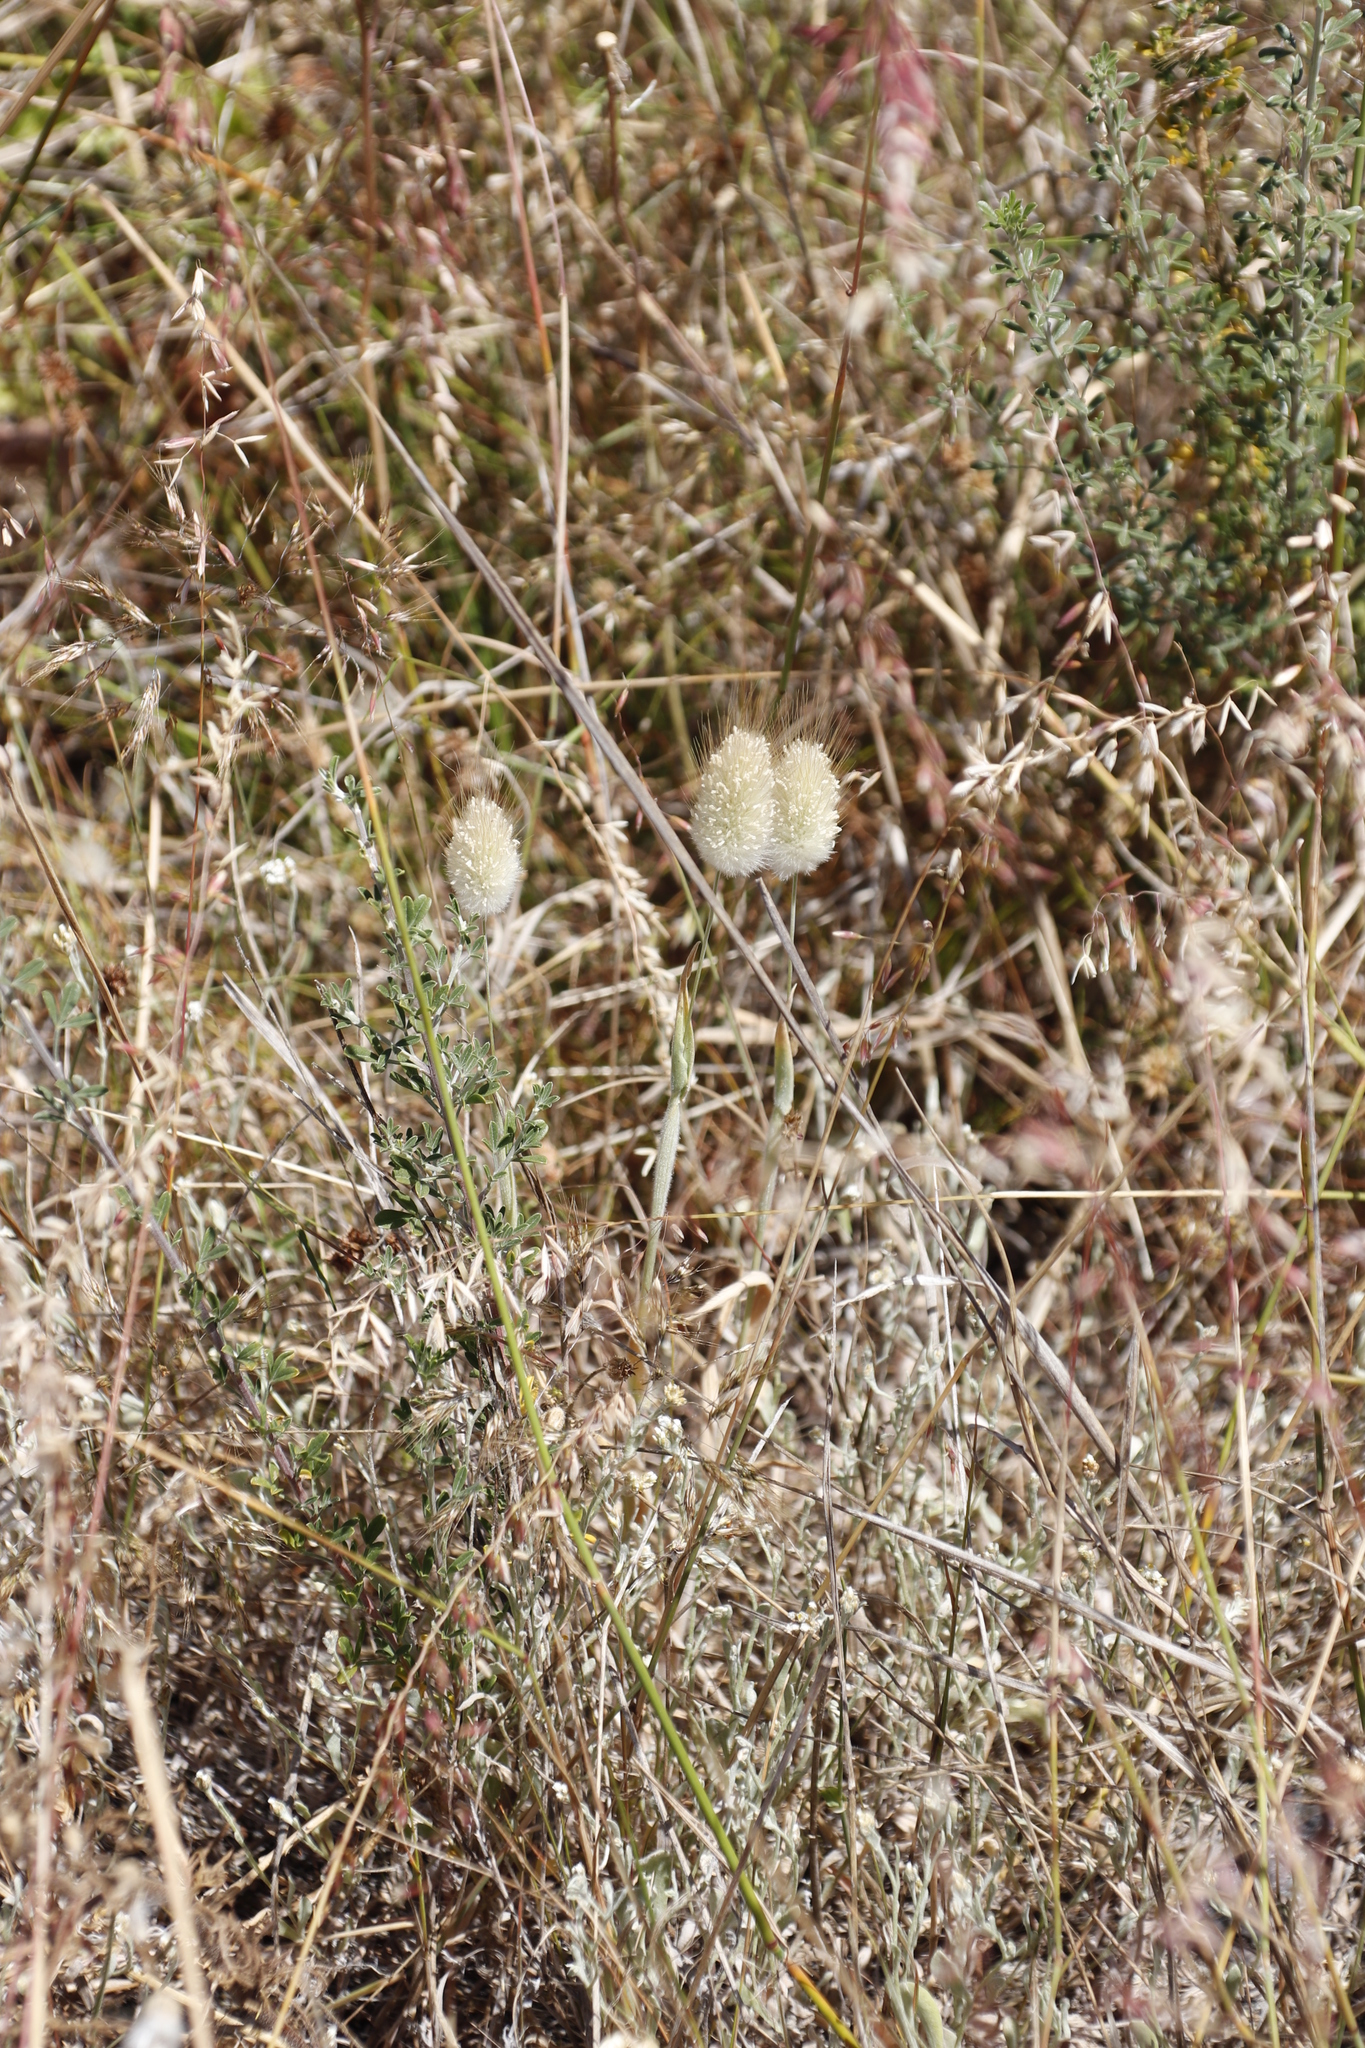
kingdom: Plantae
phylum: Tracheophyta
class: Liliopsida
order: Poales
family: Poaceae
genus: Lagurus
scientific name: Lagurus ovatus
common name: Hare's-tail
